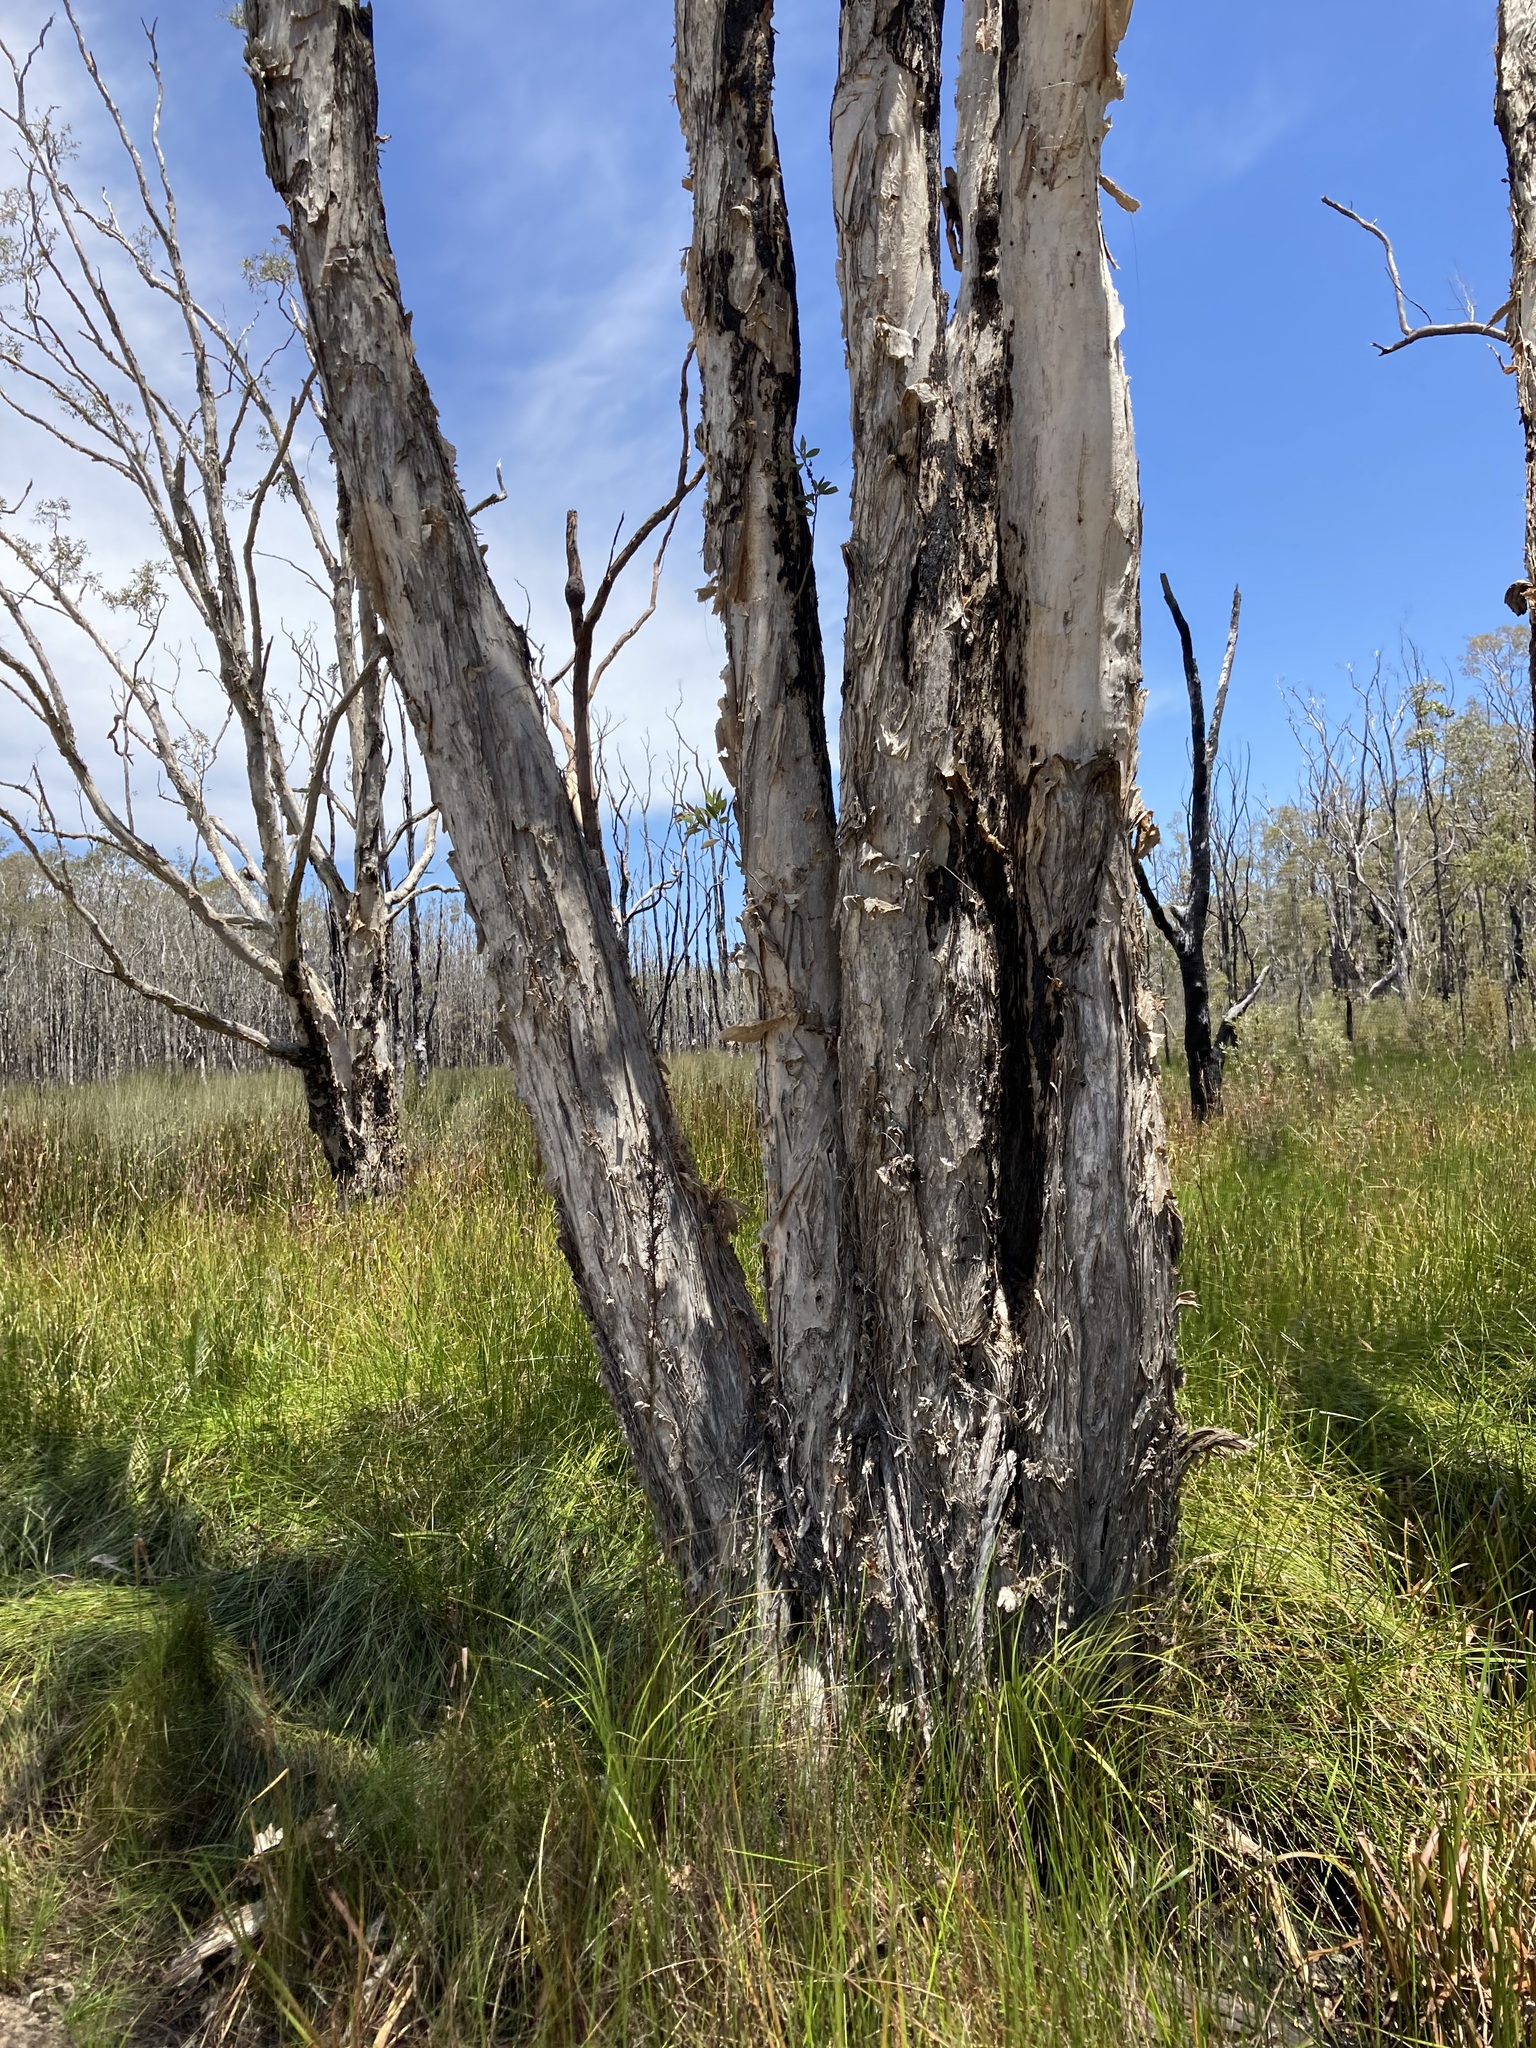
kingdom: Plantae
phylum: Tracheophyta
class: Magnoliopsida
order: Myrtales
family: Myrtaceae
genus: Melaleuca
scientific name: Melaleuca quinquenervia
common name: Punktree
